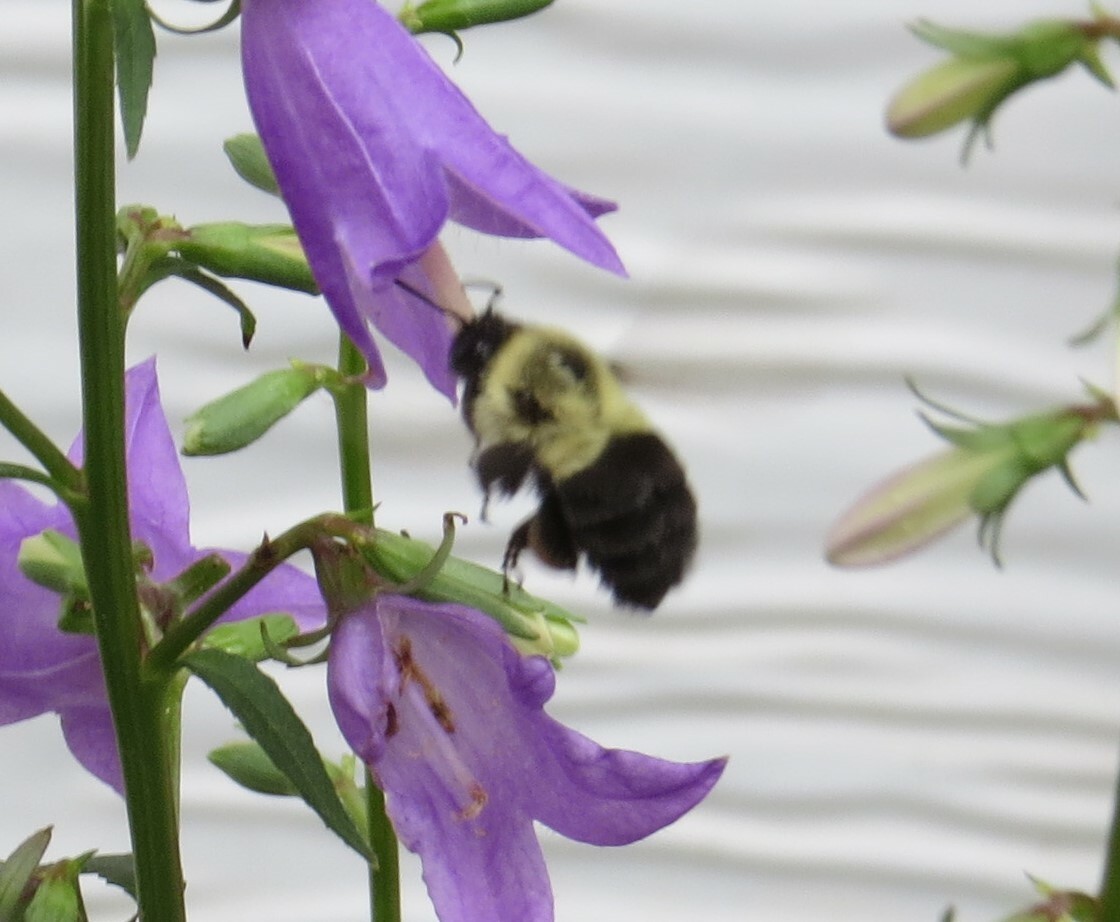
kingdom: Animalia
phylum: Arthropoda
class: Insecta
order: Hymenoptera
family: Apidae
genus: Bombus
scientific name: Bombus impatiens
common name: Common eastern bumble bee
